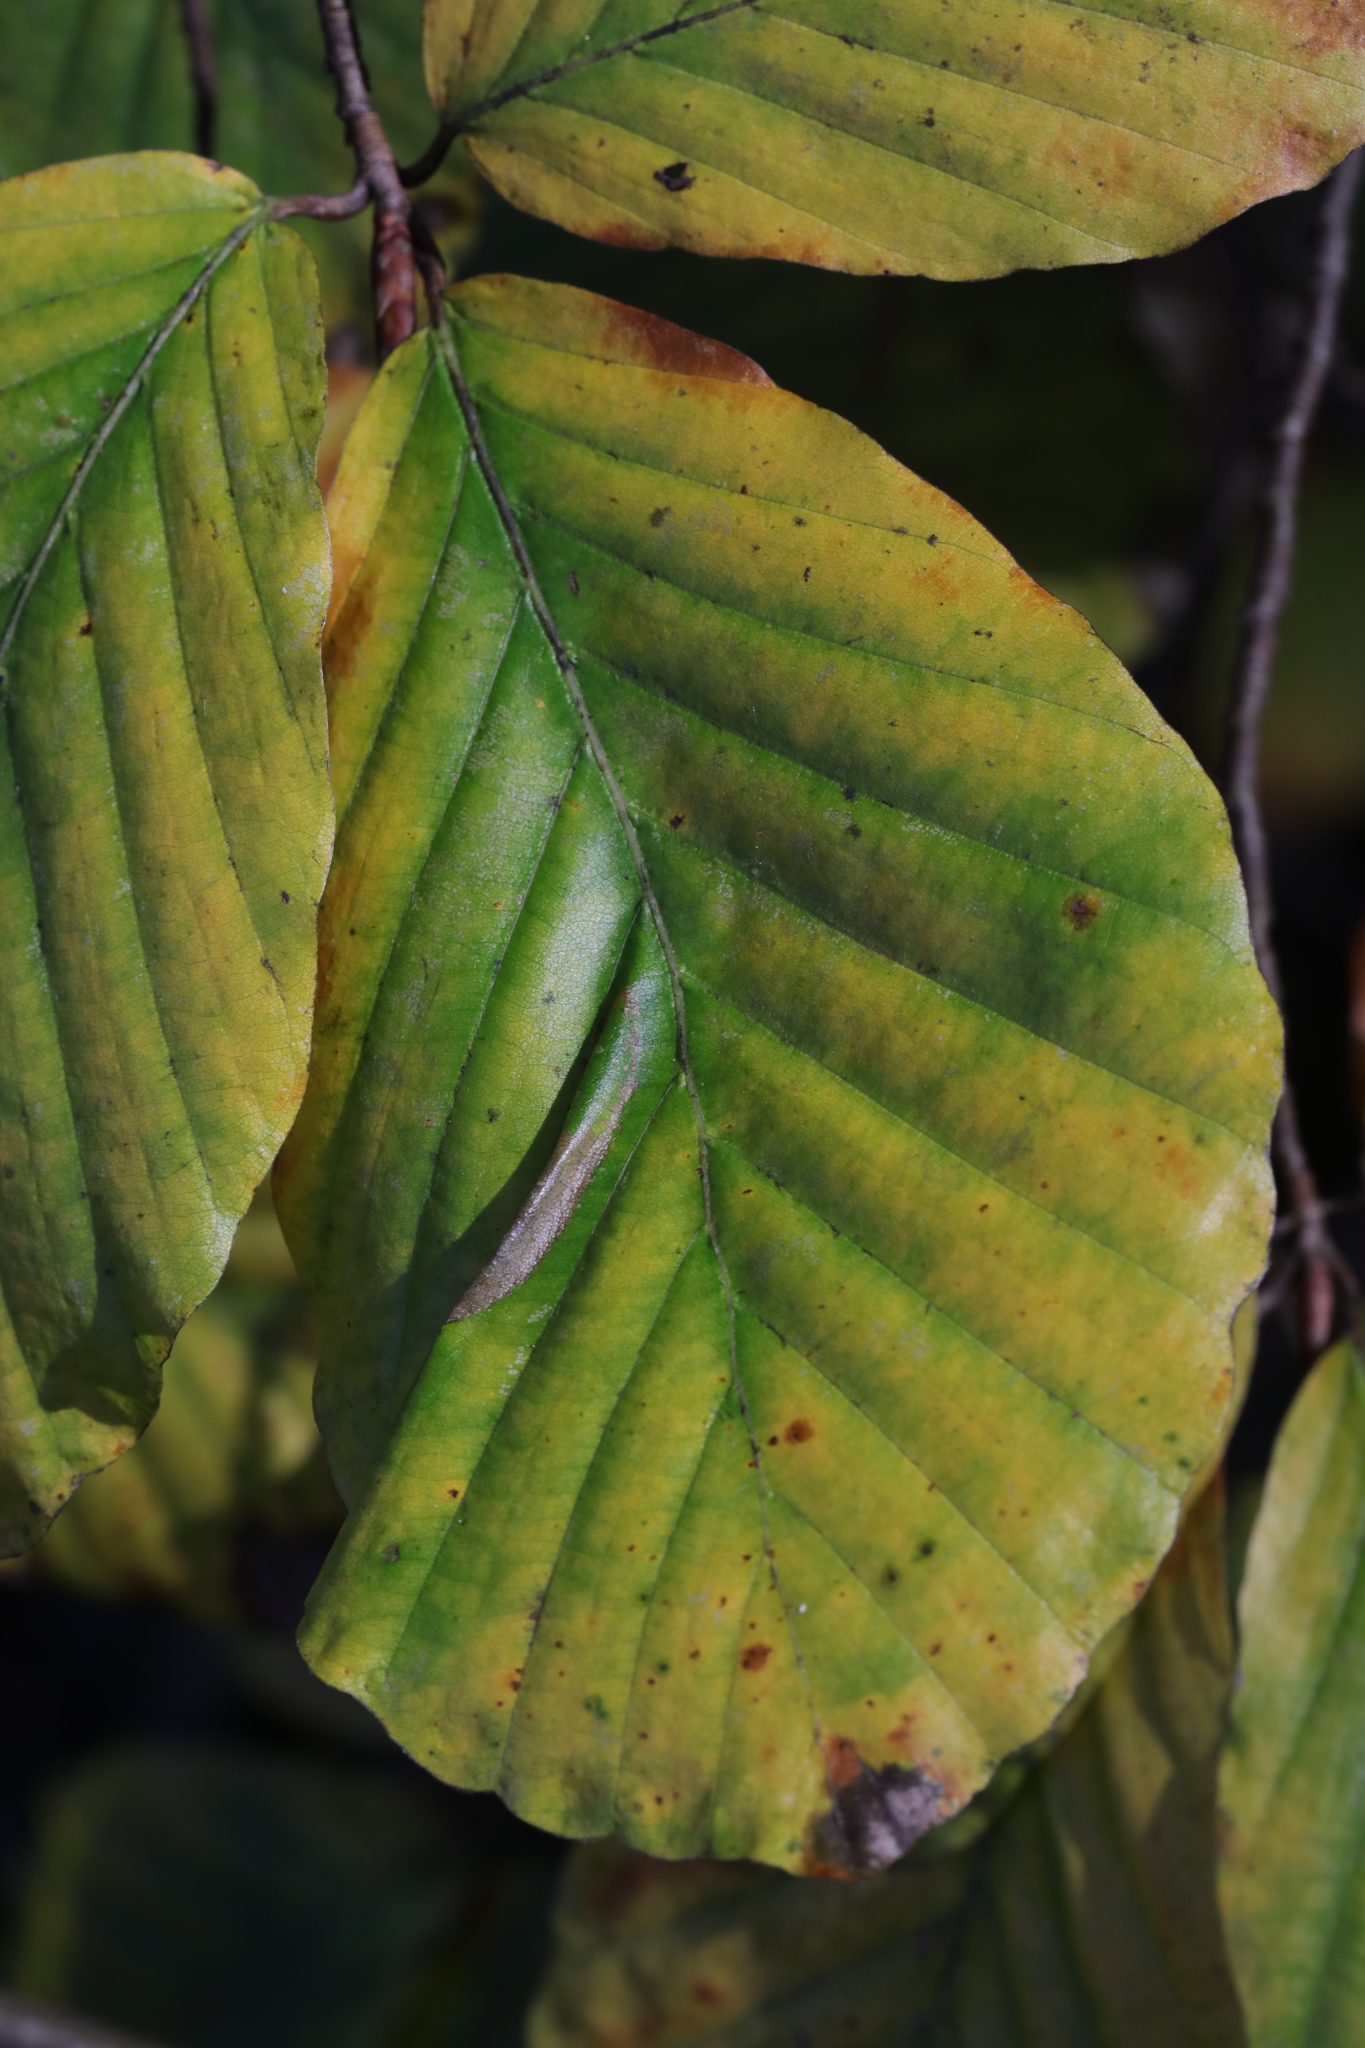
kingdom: Animalia
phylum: Arthropoda
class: Insecta
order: Lepidoptera
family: Gracillariidae
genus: Phyllonorycter
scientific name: Phyllonorycter maestingella
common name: Beech midget
